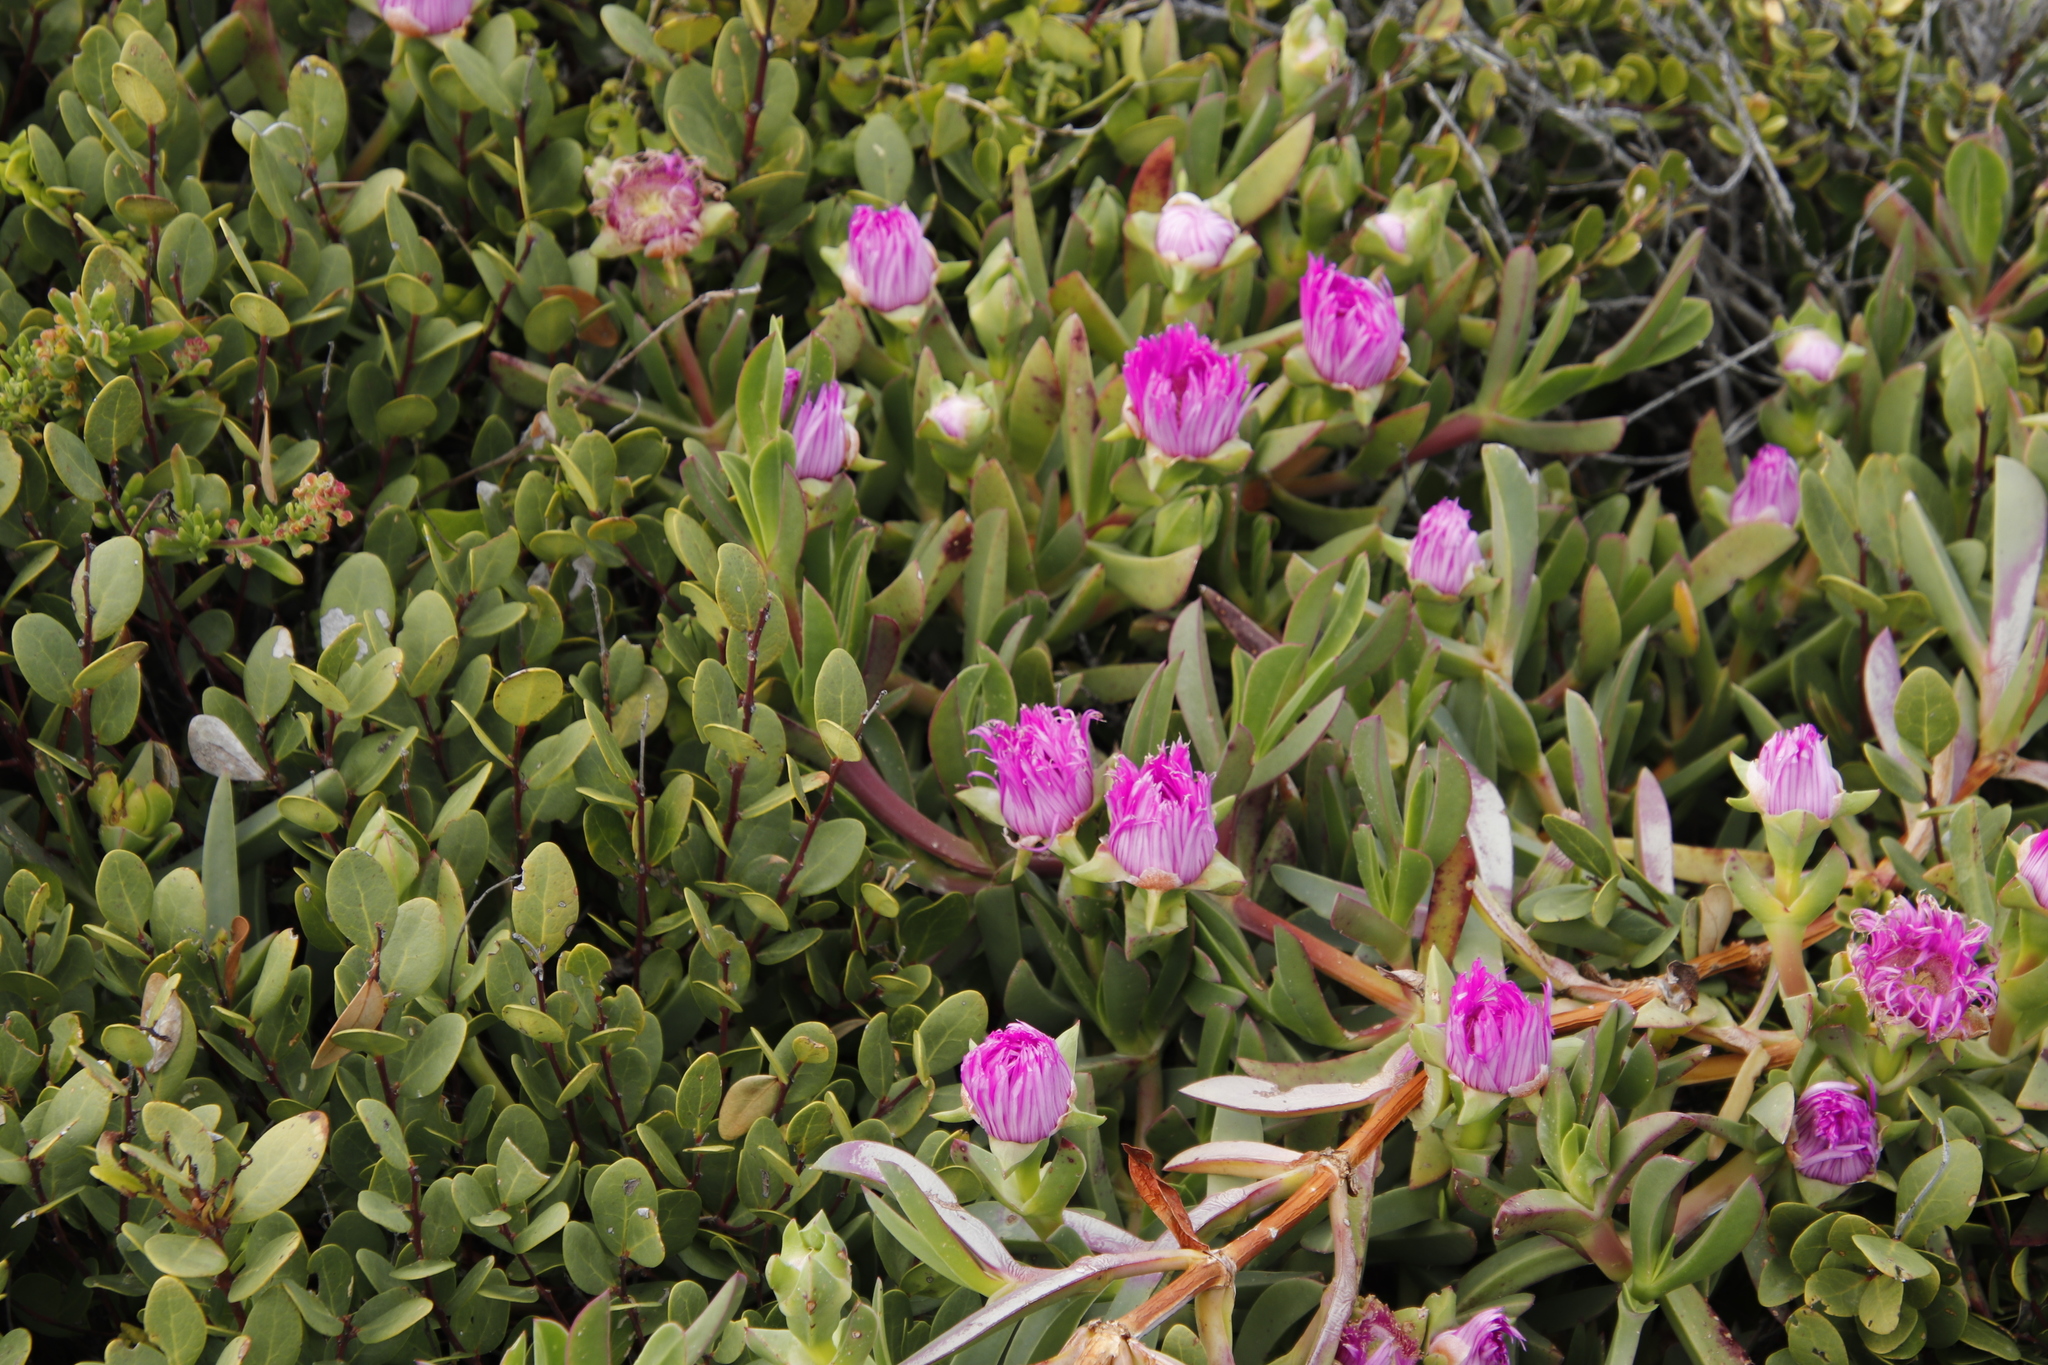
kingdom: Plantae
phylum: Tracheophyta
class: Magnoliopsida
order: Caryophyllales
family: Aizoaceae
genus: Carpobrotus
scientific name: Carpobrotus acinaciformis
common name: Sally-my-handsome
